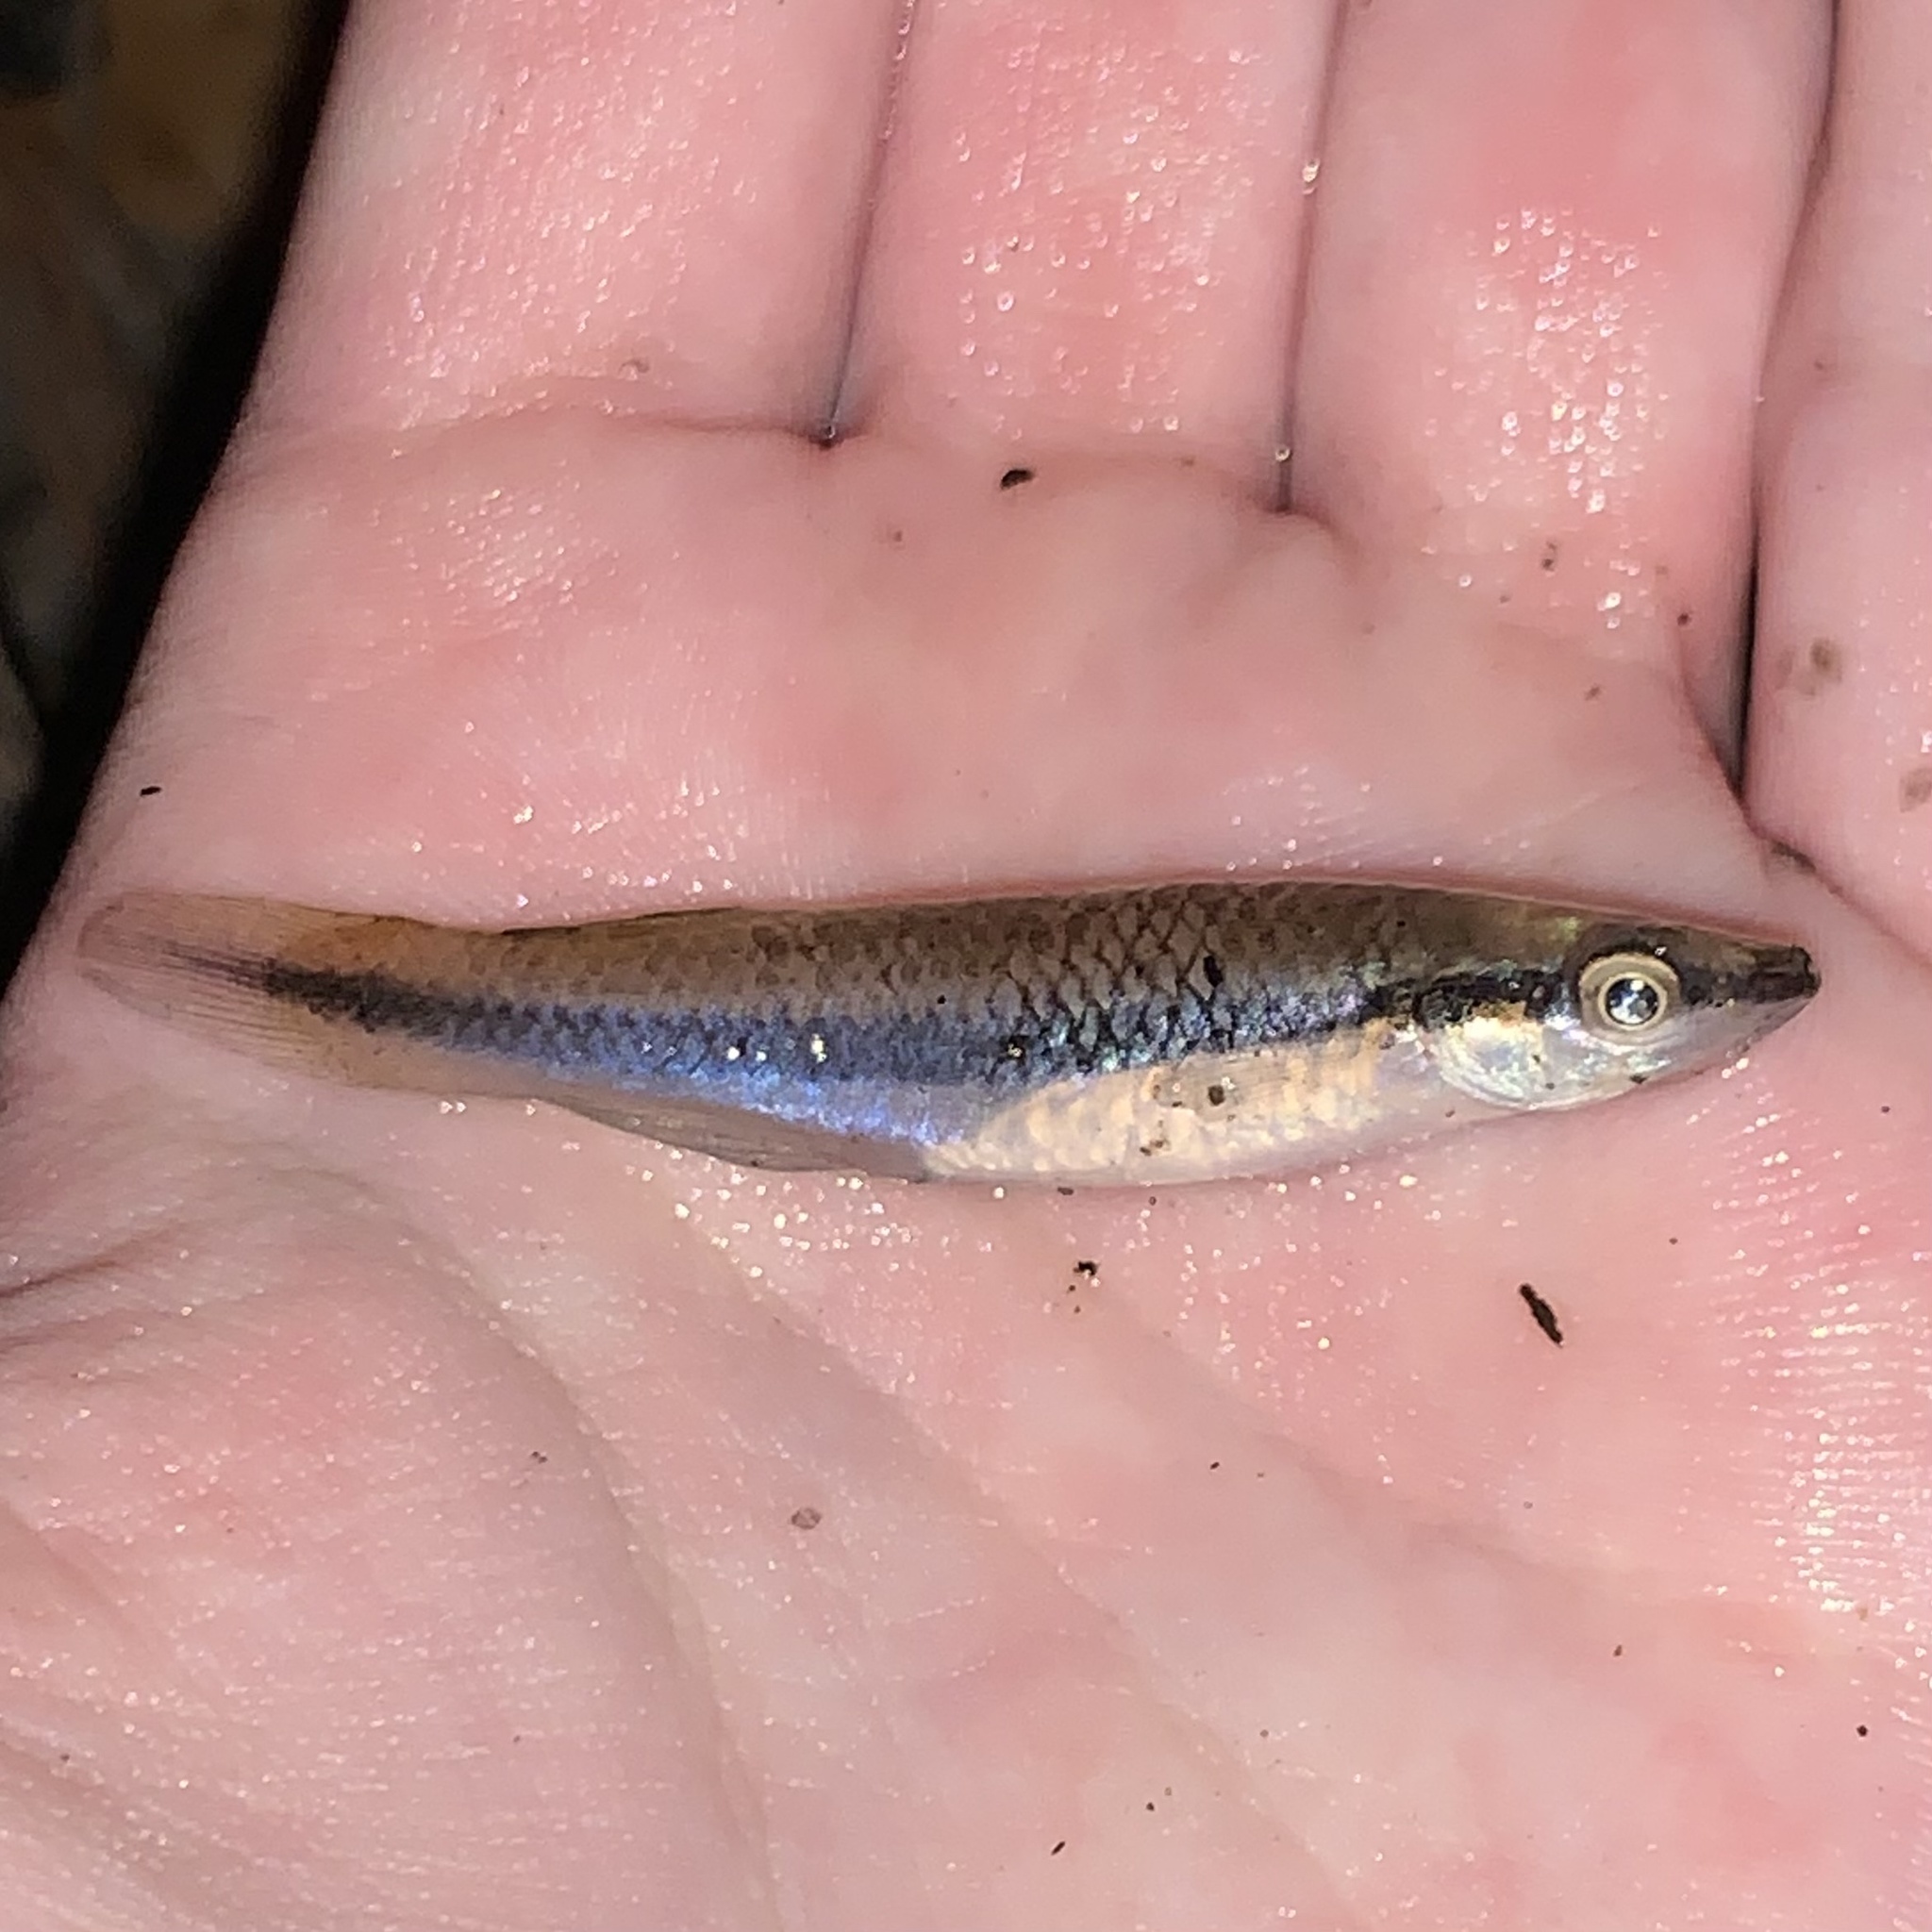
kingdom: Animalia
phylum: Chordata
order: Cyprinodontiformes
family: Fundulidae
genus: Fundulus
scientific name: Fundulus notatus
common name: Blackstripe topminnow
